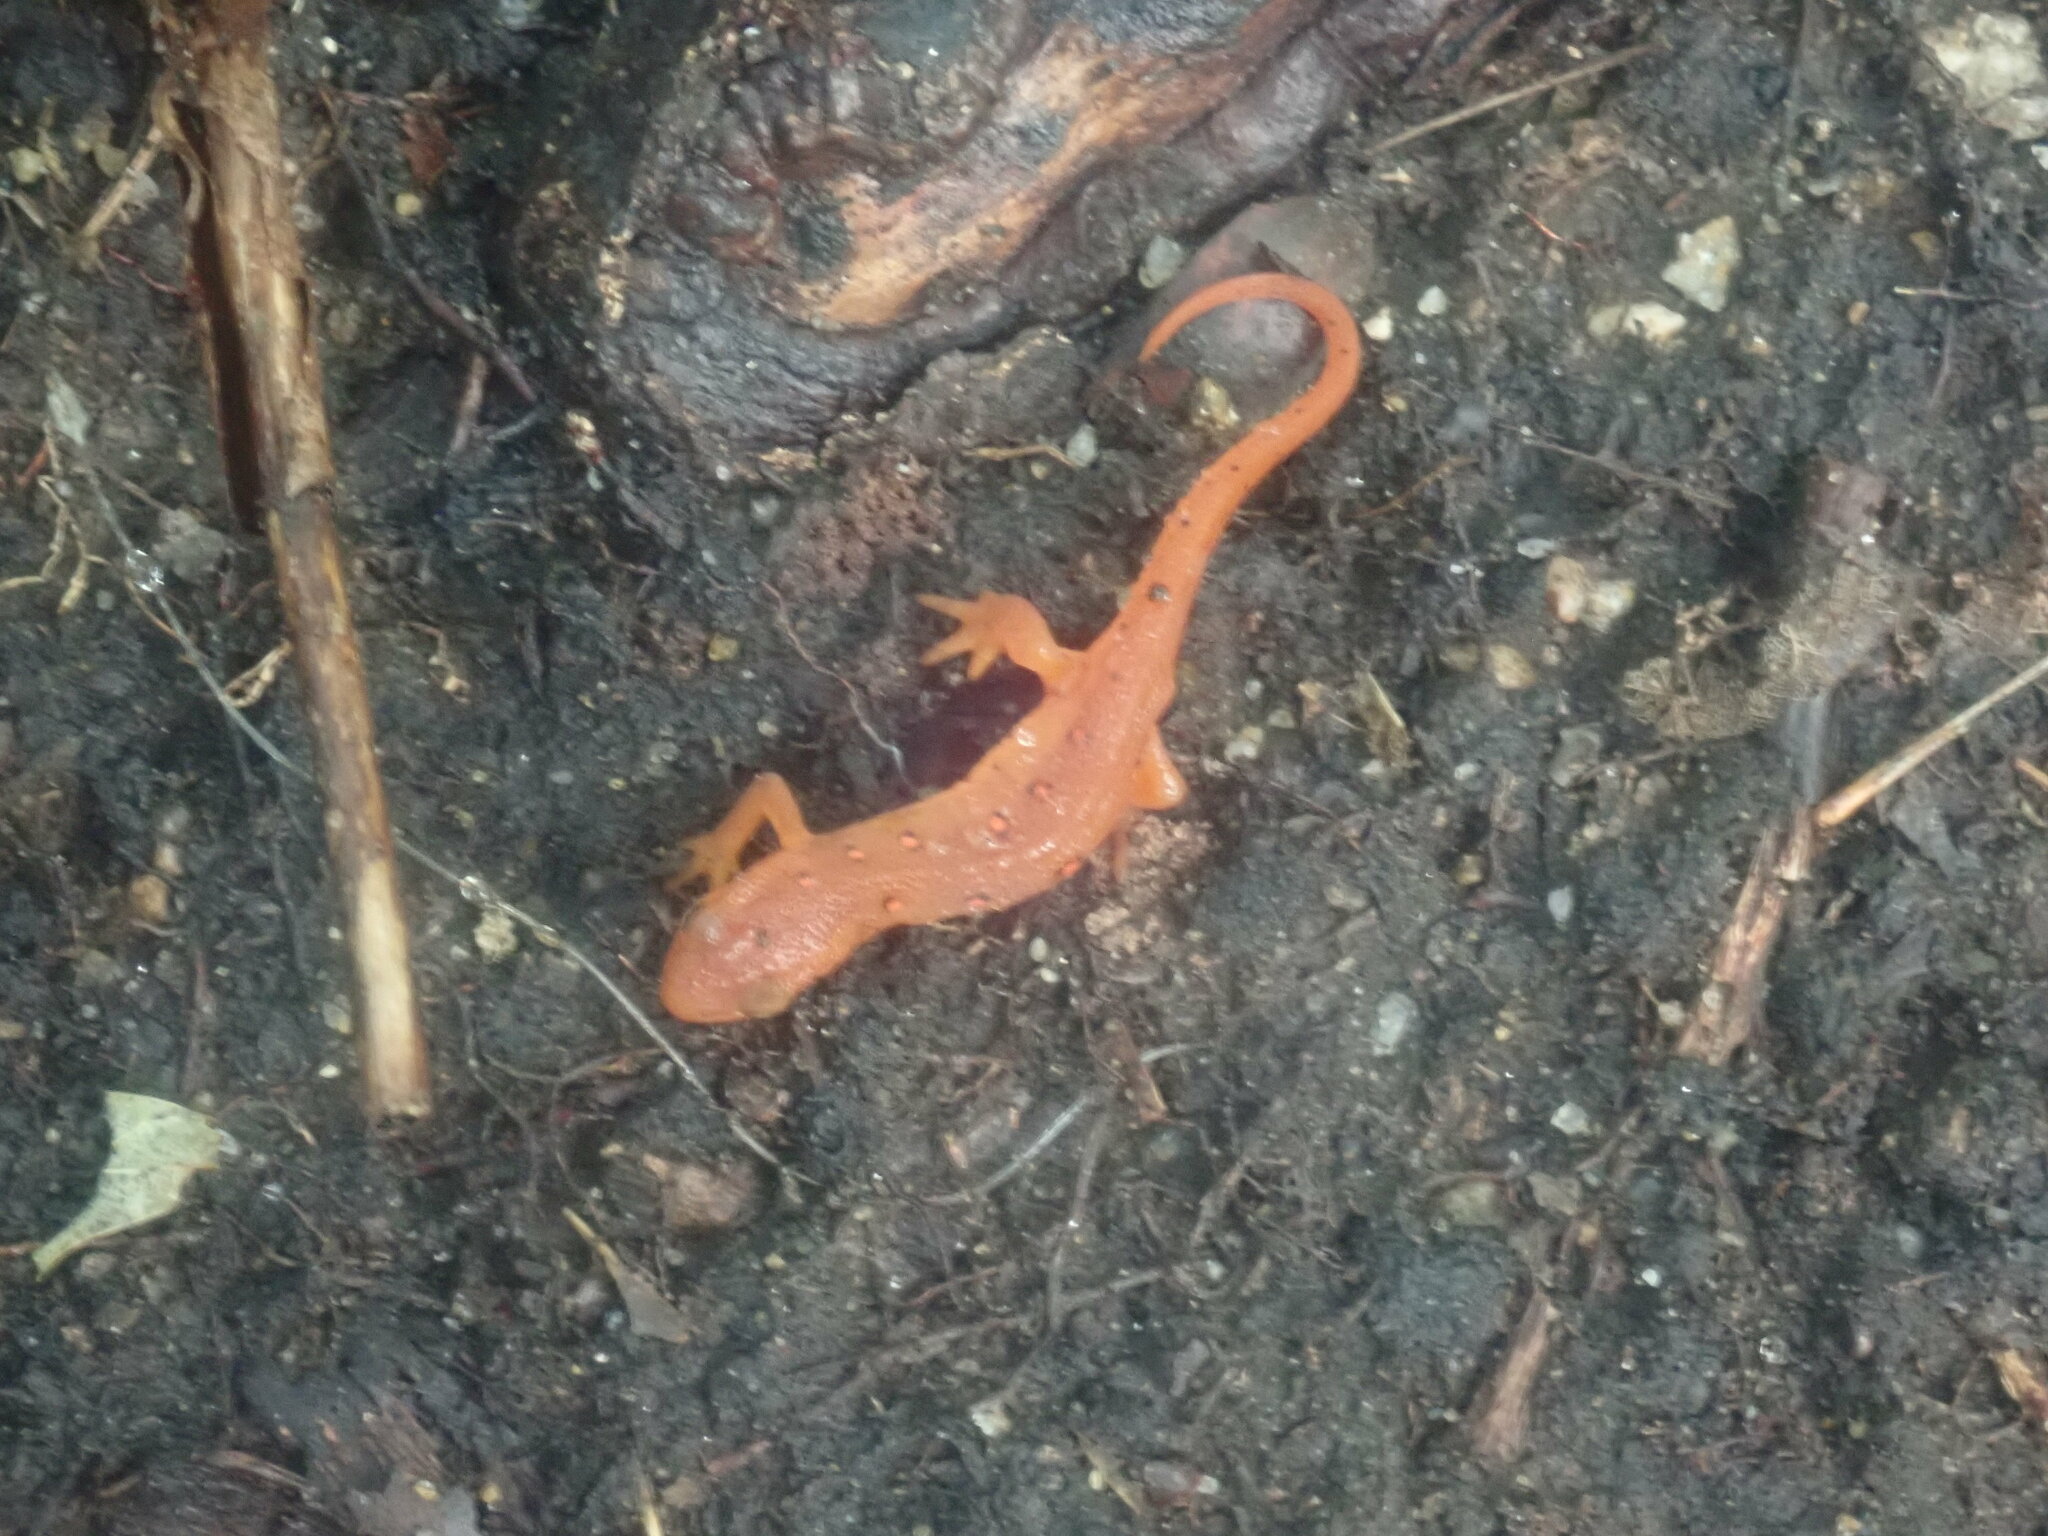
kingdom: Animalia
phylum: Chordata
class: Amphibia
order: Caudata
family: Salamandridae
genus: Notophthalmus
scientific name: Notophthalmus viridescens
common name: Eastern newt
